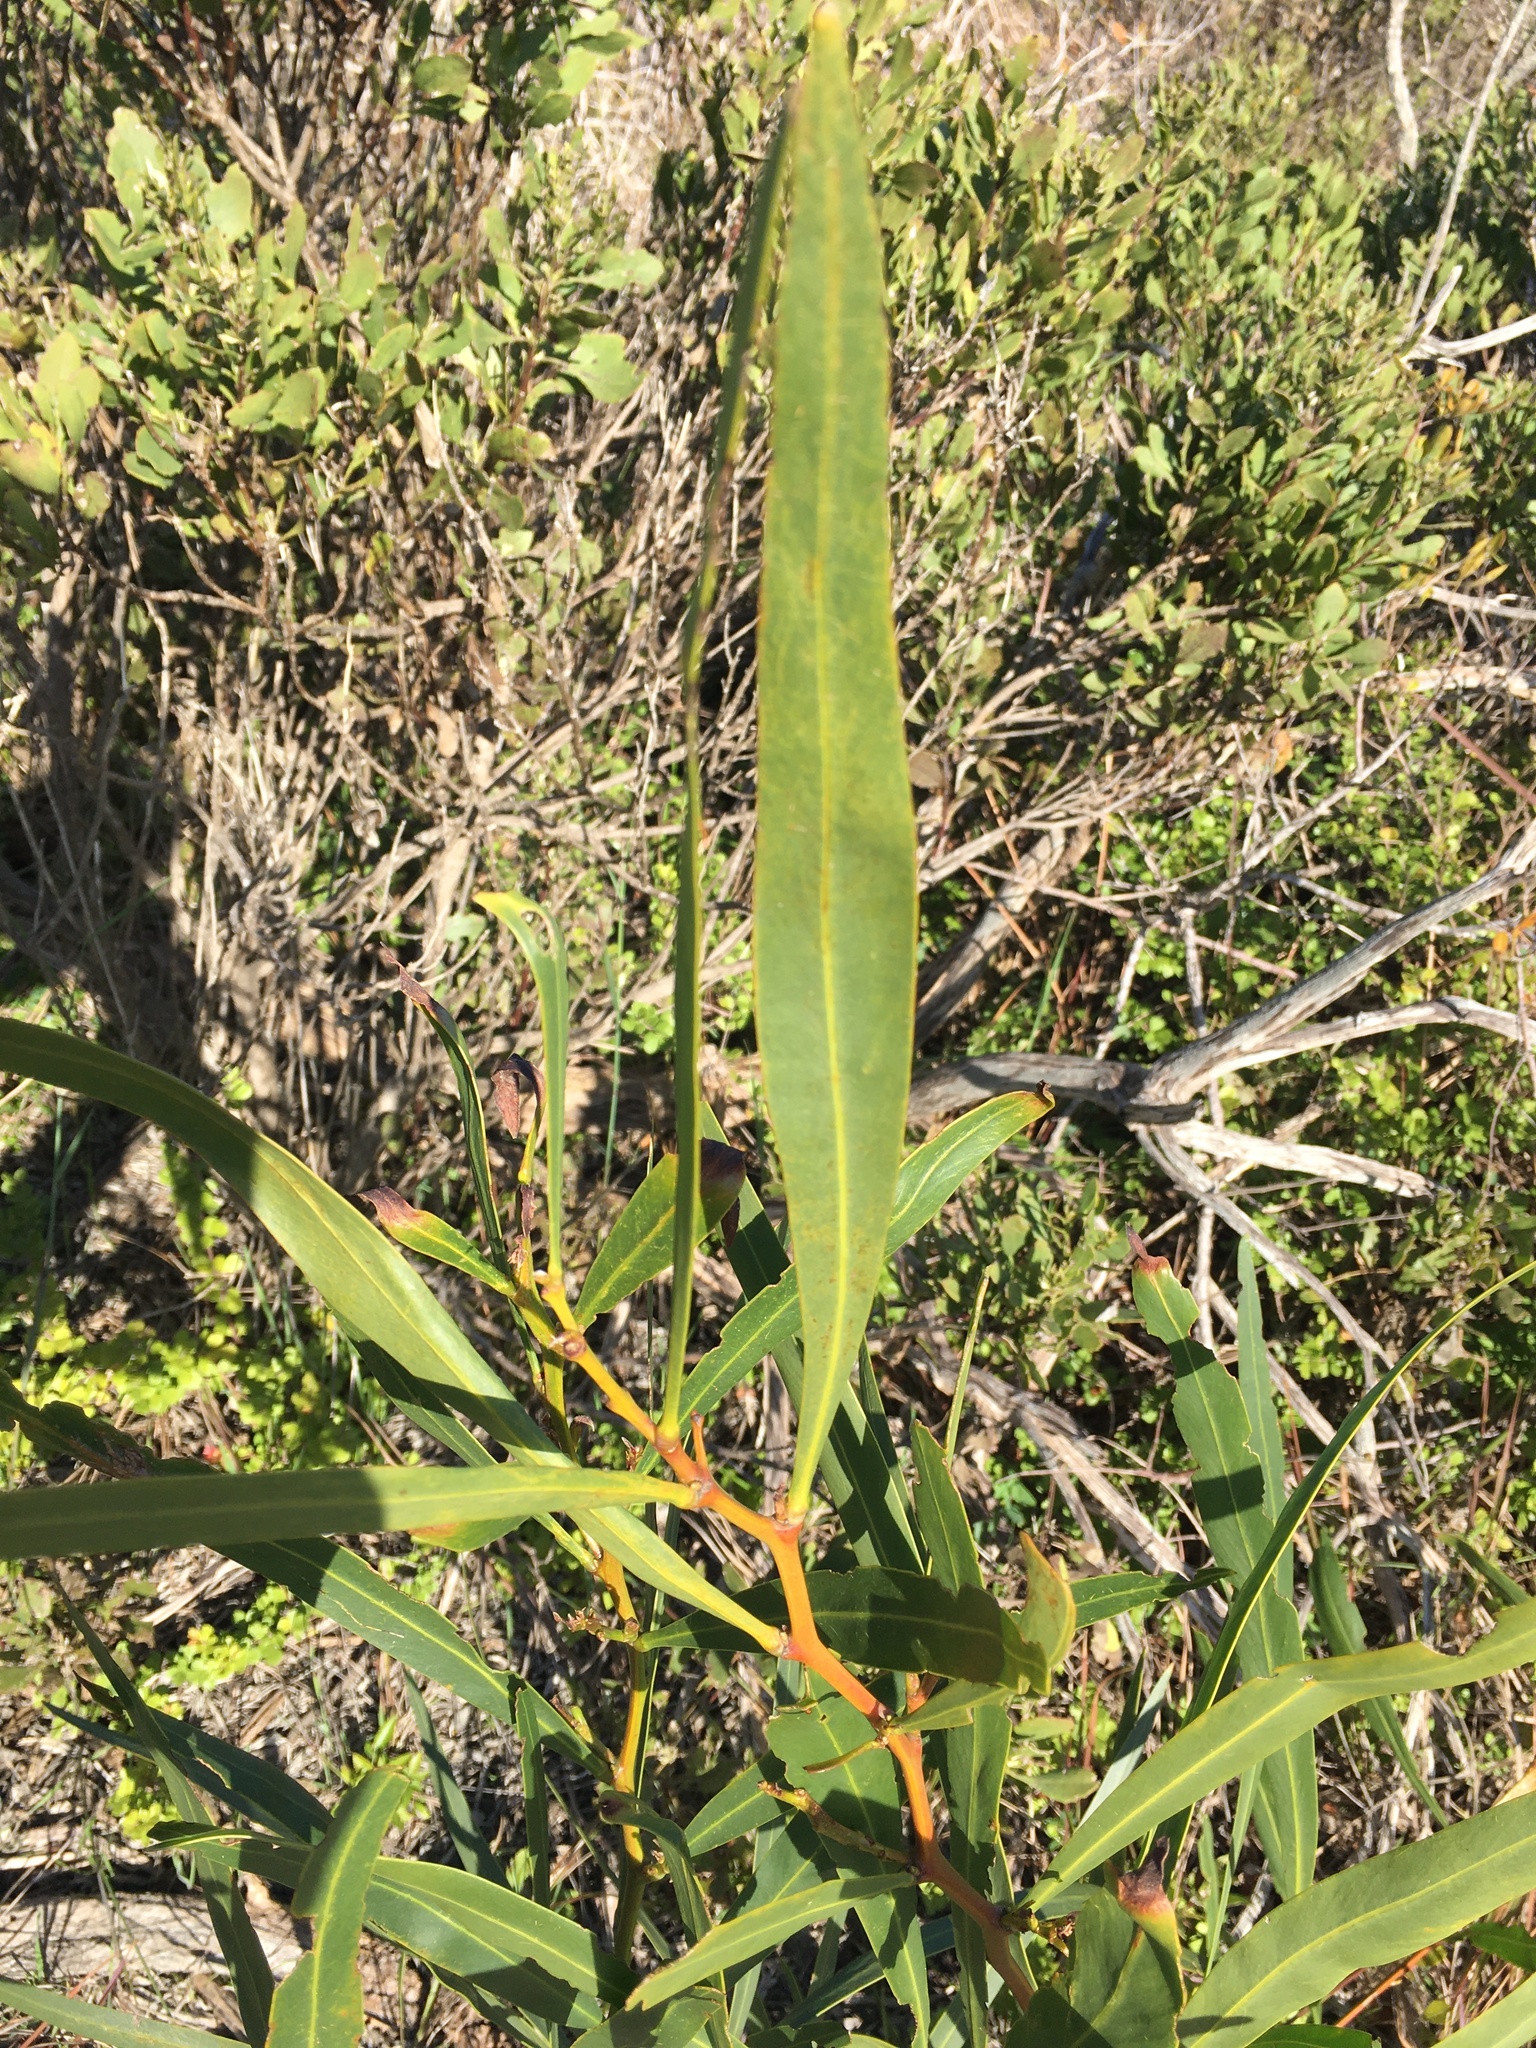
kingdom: Plantae
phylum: Tracheophyta
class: Magnoliopsida
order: Fabales
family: Fabaceae
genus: Acacia
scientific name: Acacia saligna
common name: Orange wattle
